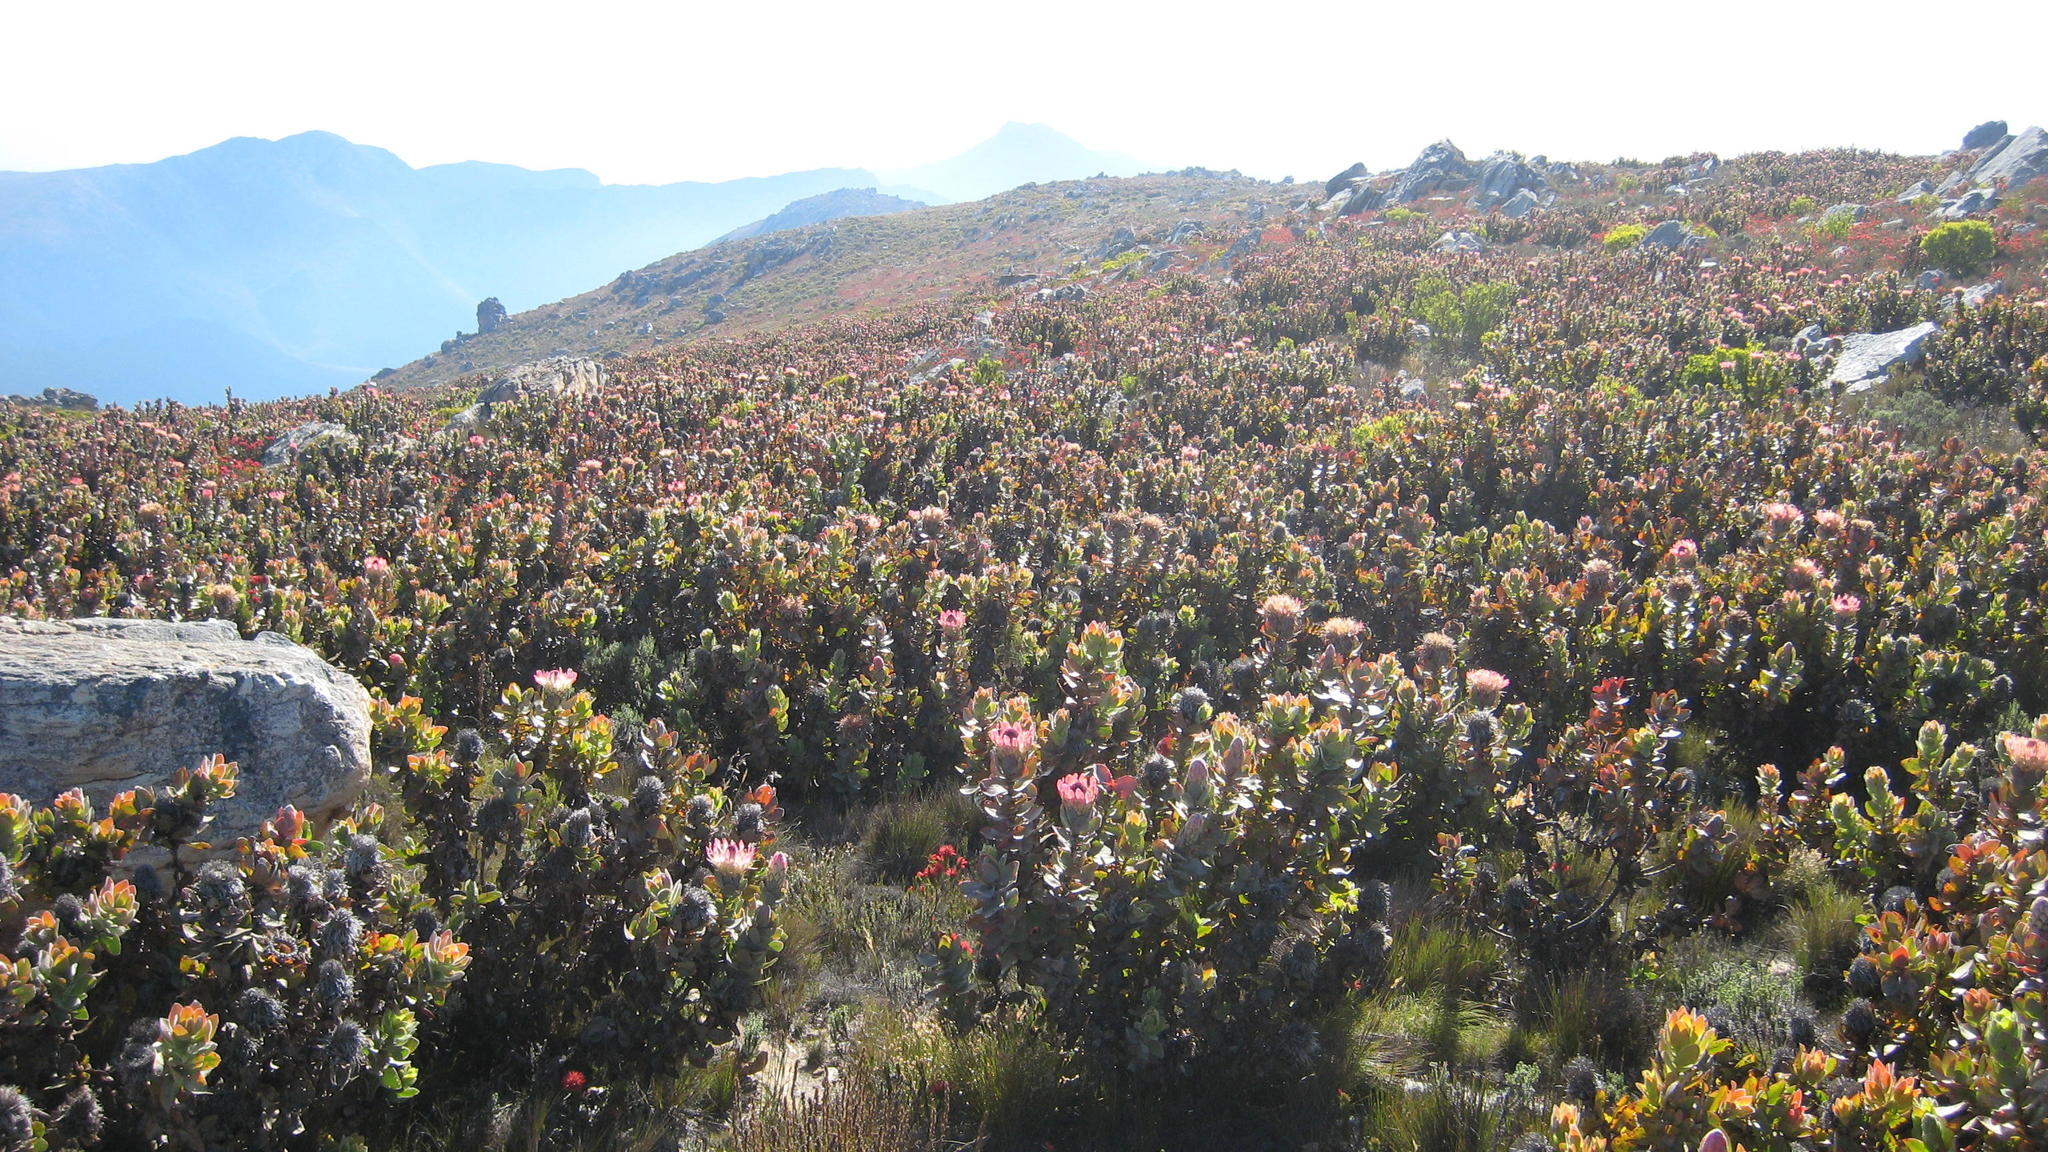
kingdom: Plantae
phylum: Tracheophyta
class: Magnoliopsida
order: Proteales
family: Proteaceae
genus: Protea
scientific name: Protea eximia
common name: Broad-leaved sugarbush
